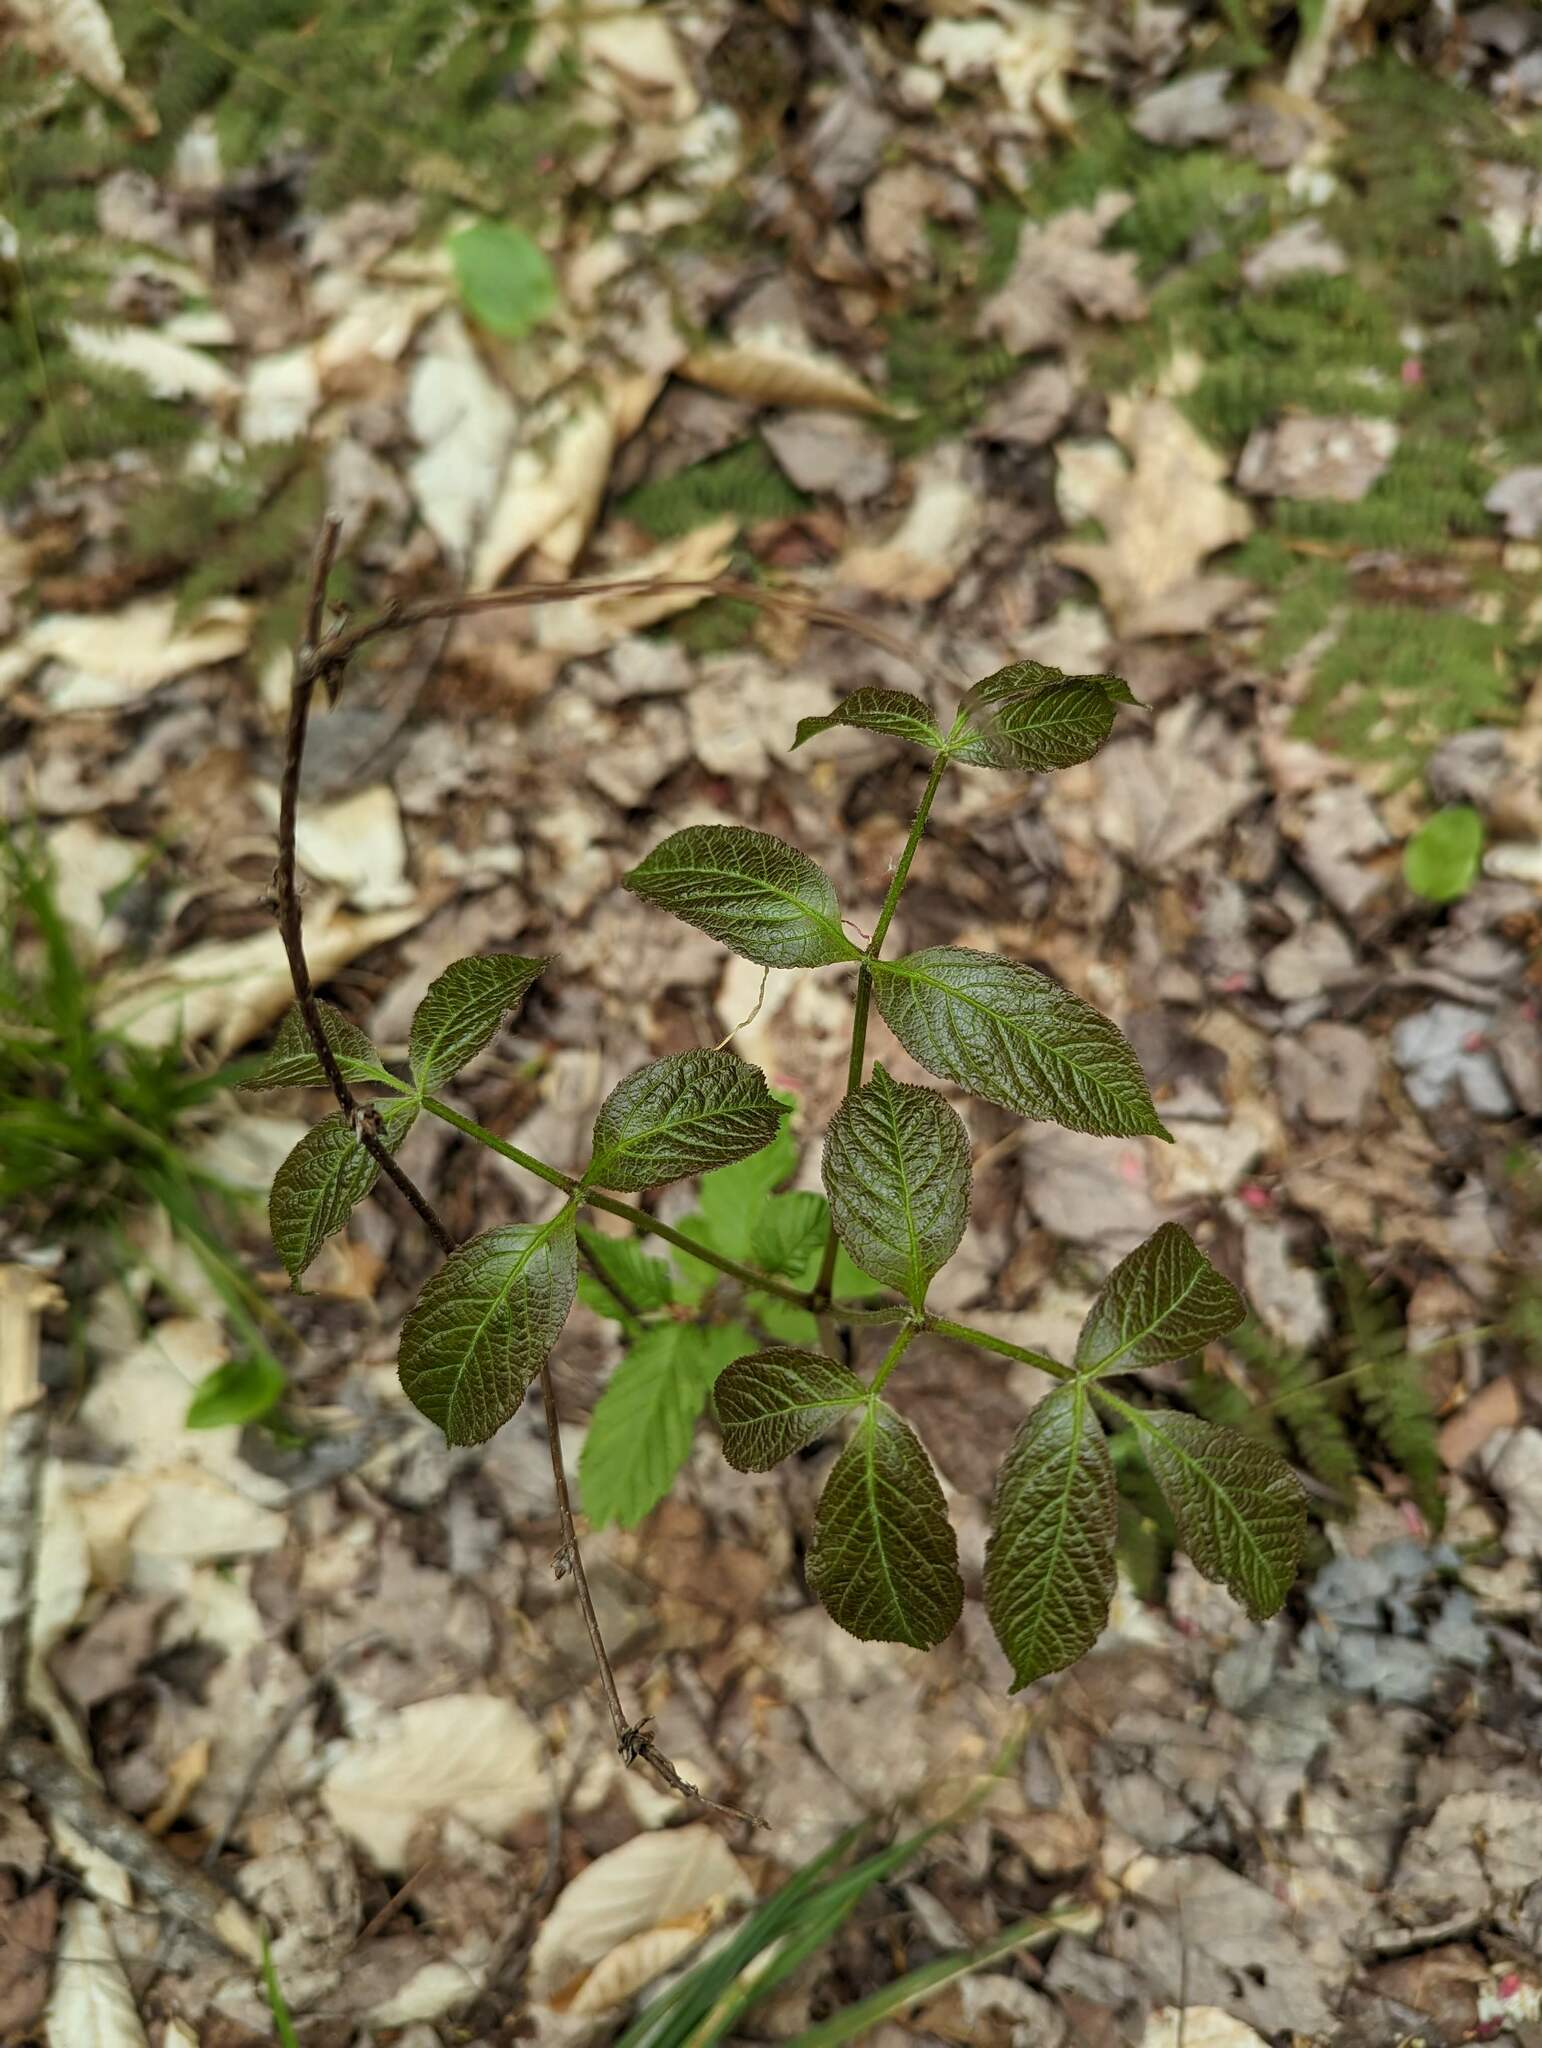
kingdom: Plantae
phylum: Tracheophyta
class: Magnoliopsida
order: Apiales
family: Araliaceae
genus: Aralia
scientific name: Aralia nudicaulis
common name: Wild sarsaparilla
